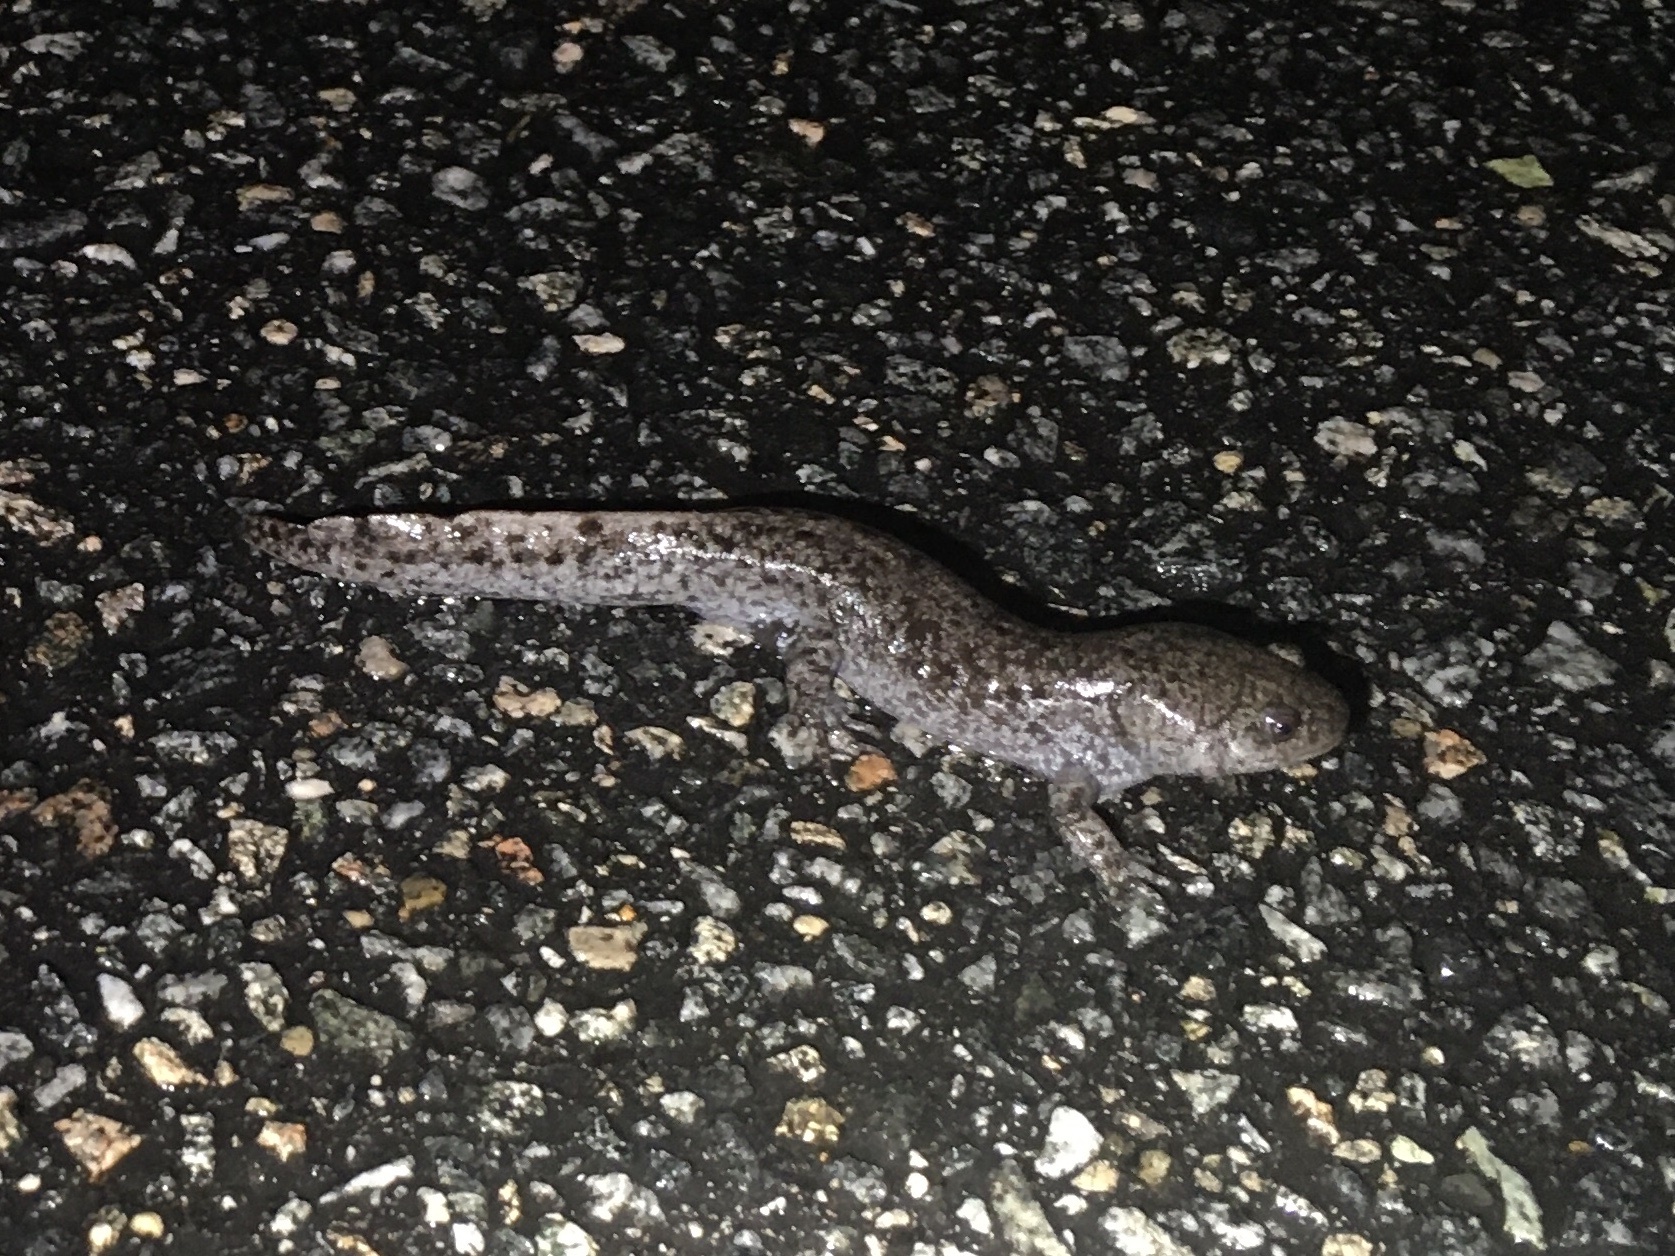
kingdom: Animalia
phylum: Chordata
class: Amphibia
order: Caudata
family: Ambystomatidae
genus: Ambystoma
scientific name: Ambystoma talpoideum
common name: Mole salamander
